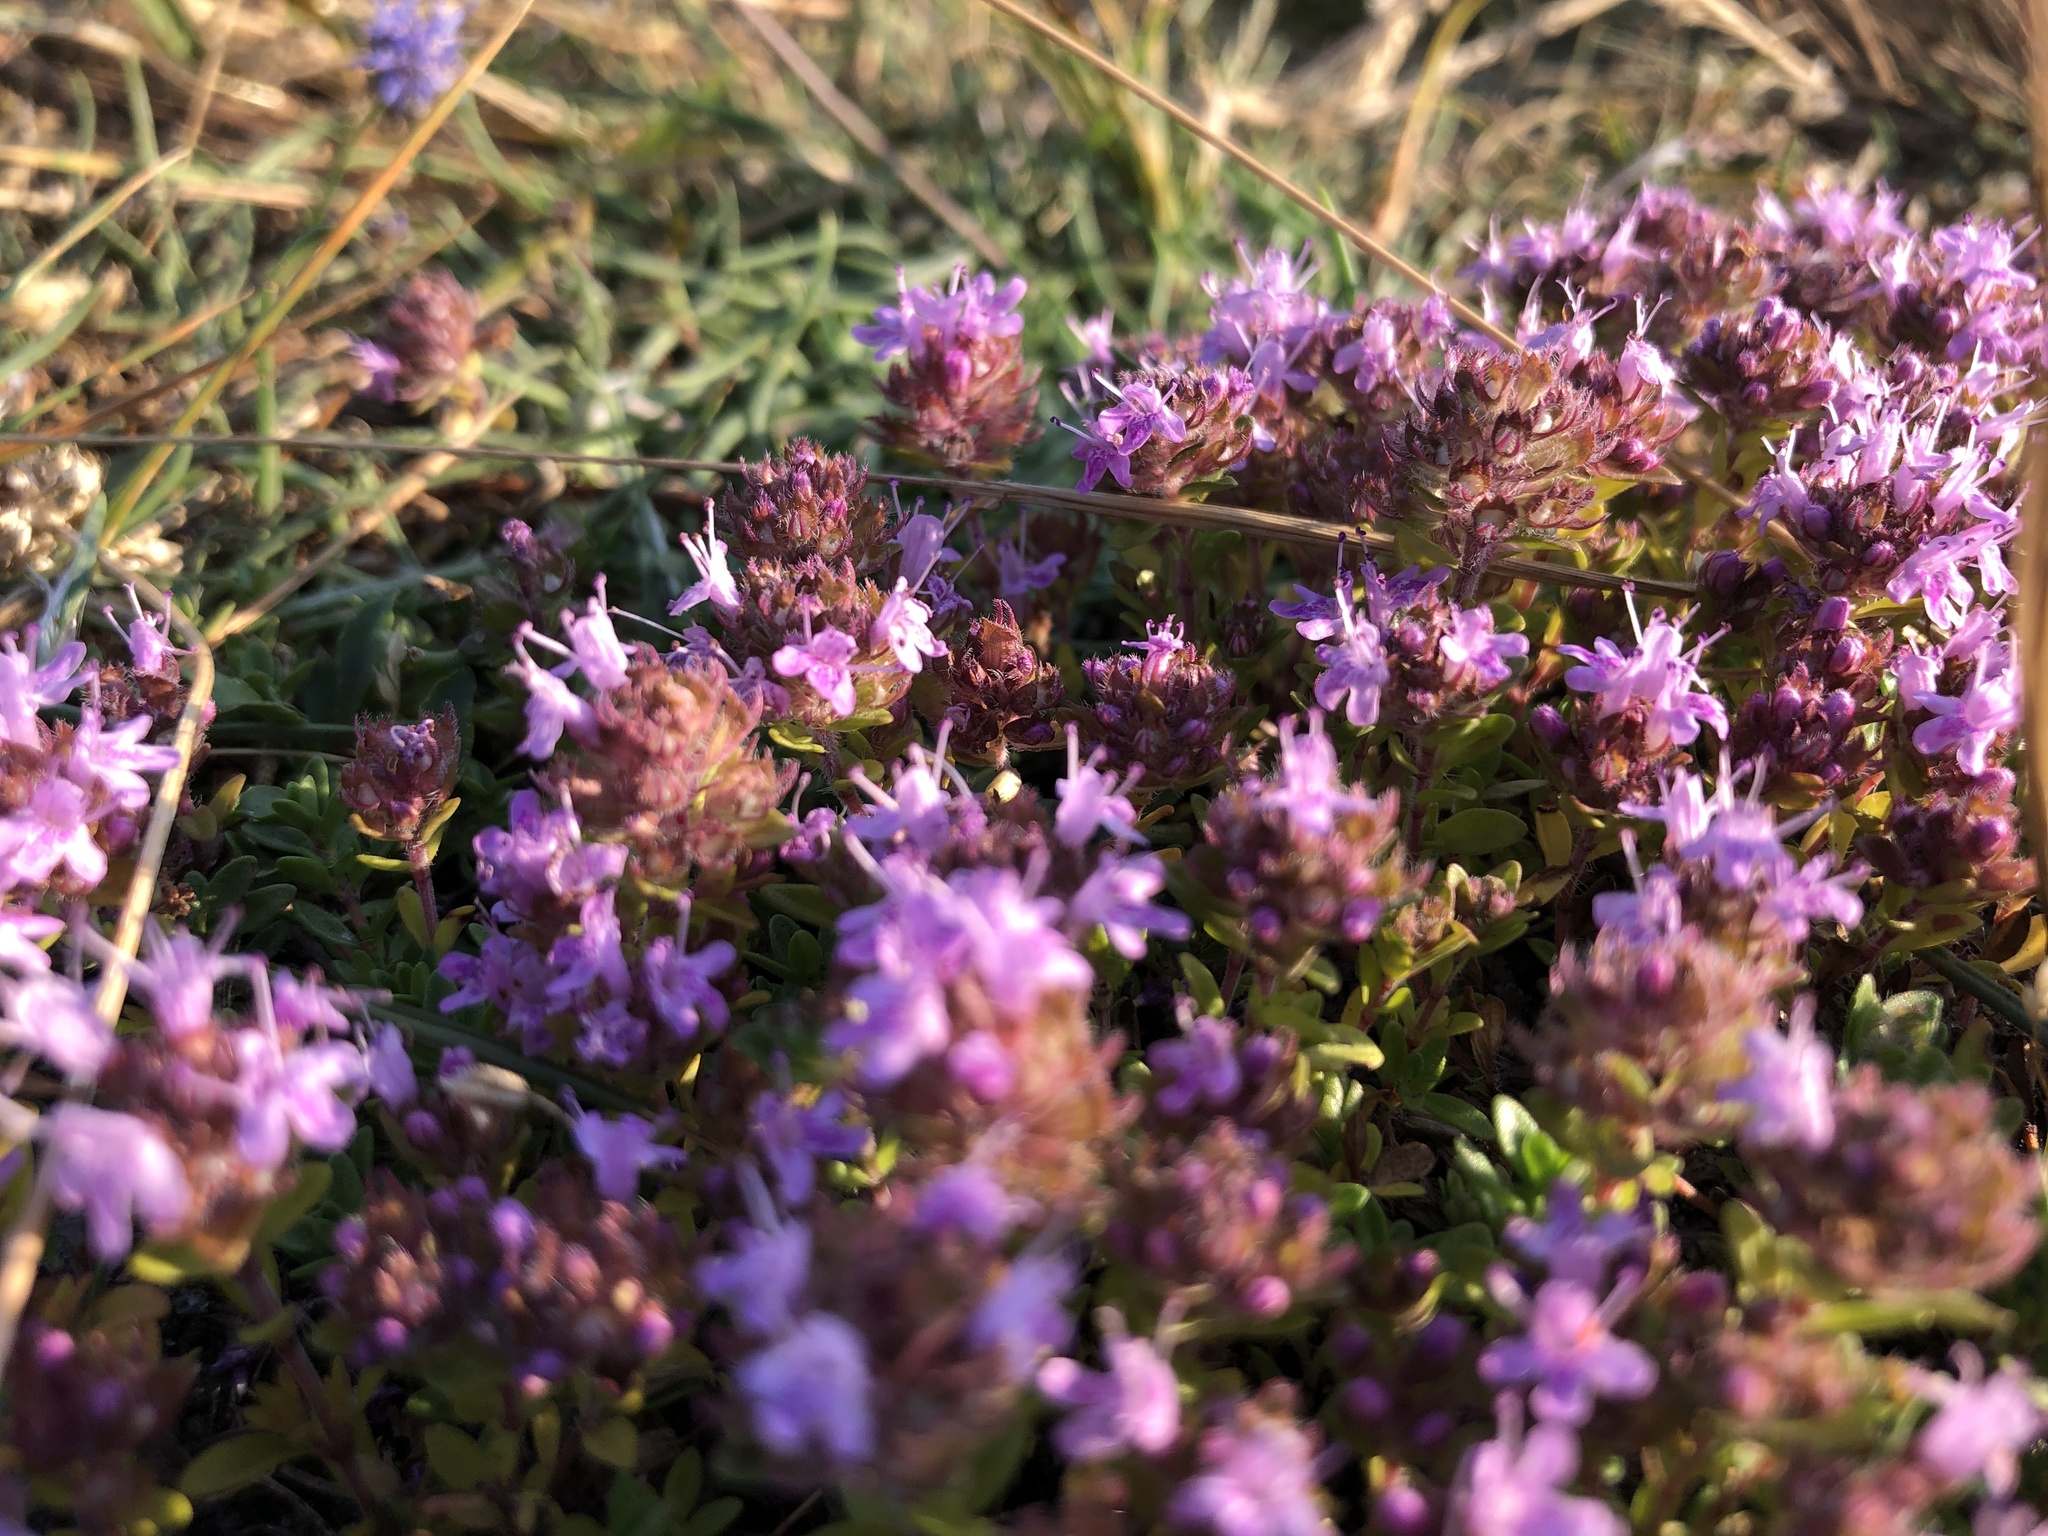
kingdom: Plantae
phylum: Tracheophyta
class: Magnoliopsida
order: Lamiales
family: Lamiaceae
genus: Thymus
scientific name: Thymus serpyllum
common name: Breckland thyme
